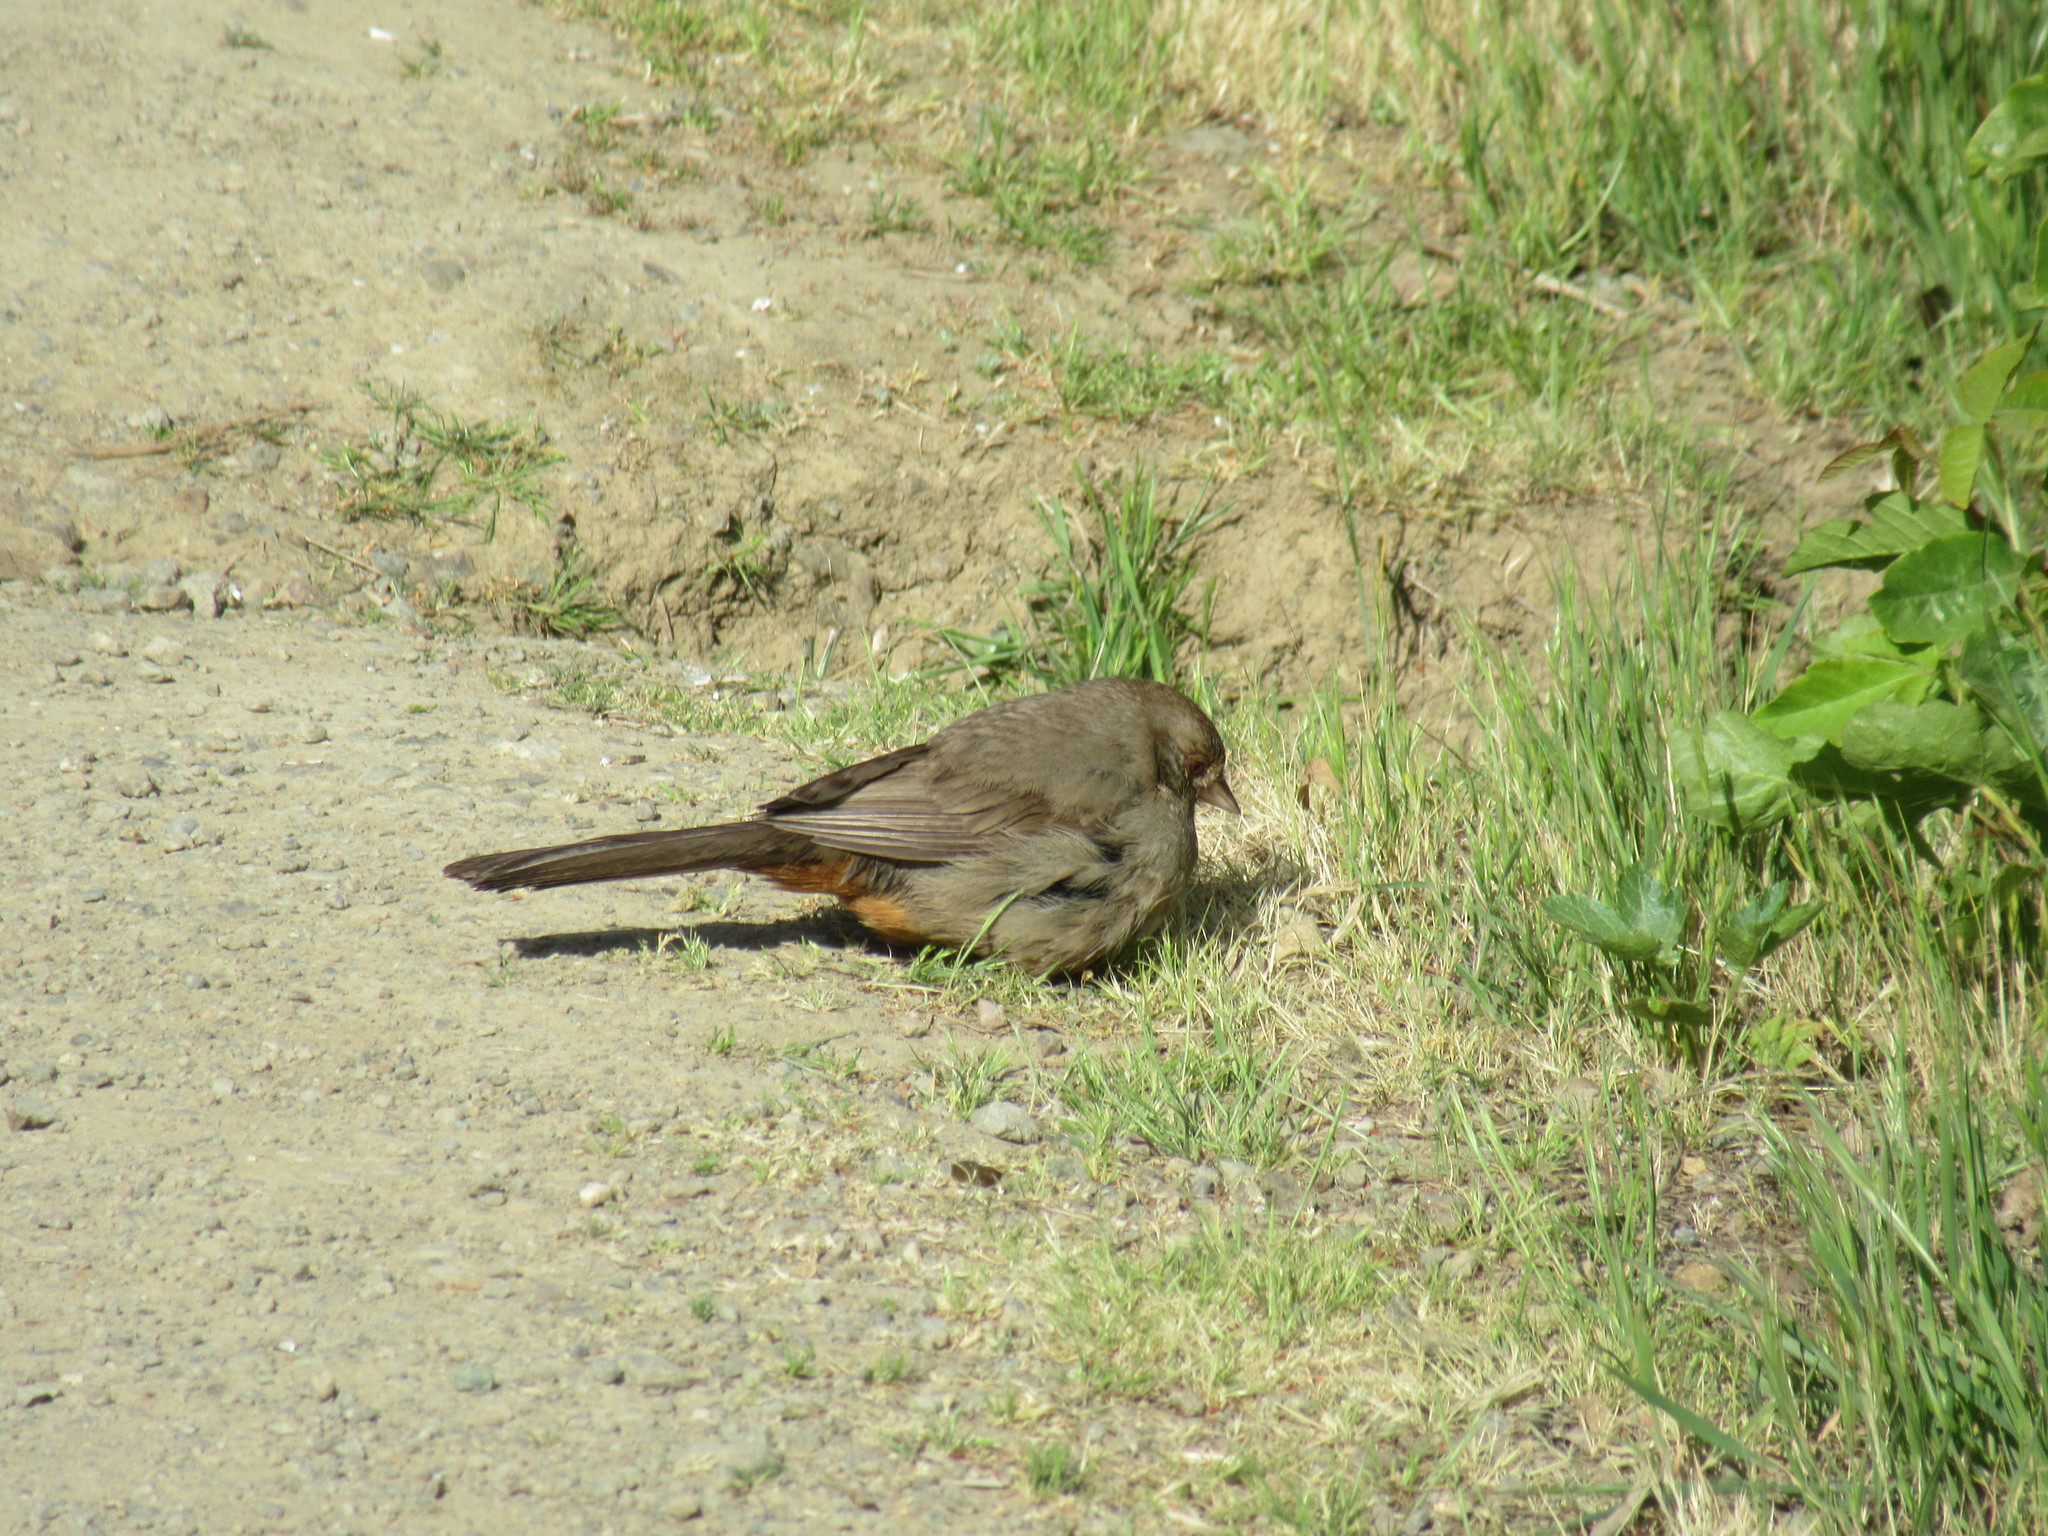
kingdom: Animalia
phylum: Chordata
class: Aves
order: Passeriformes
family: Passerellidae
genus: Melozone
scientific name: Melozone crissalis
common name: California towhee
